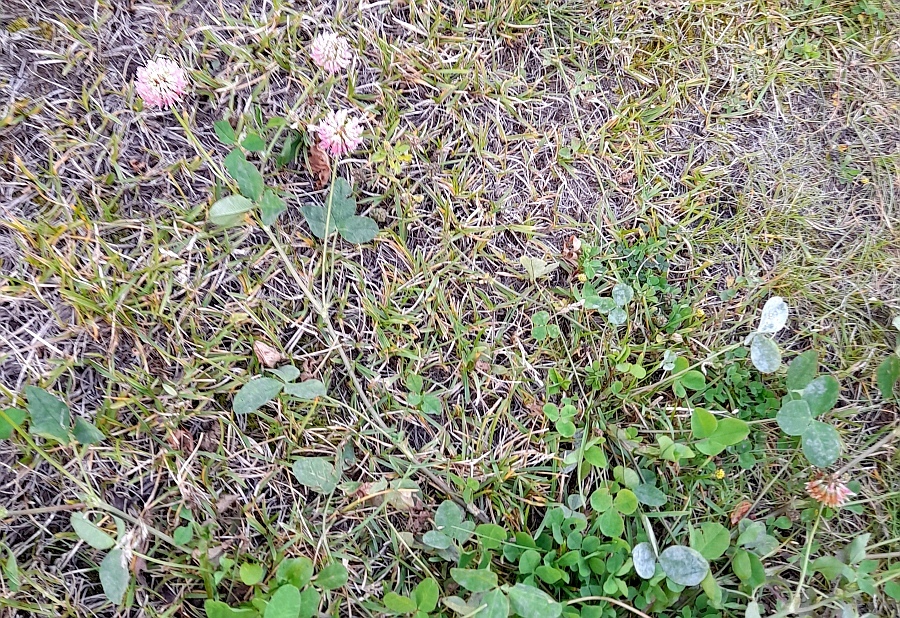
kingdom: Plantae
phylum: Tracheophyta
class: Magnoliopsida
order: Fabales
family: Fabaceae
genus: Trifolium
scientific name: Trifolium hybridum
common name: Alsike clover
